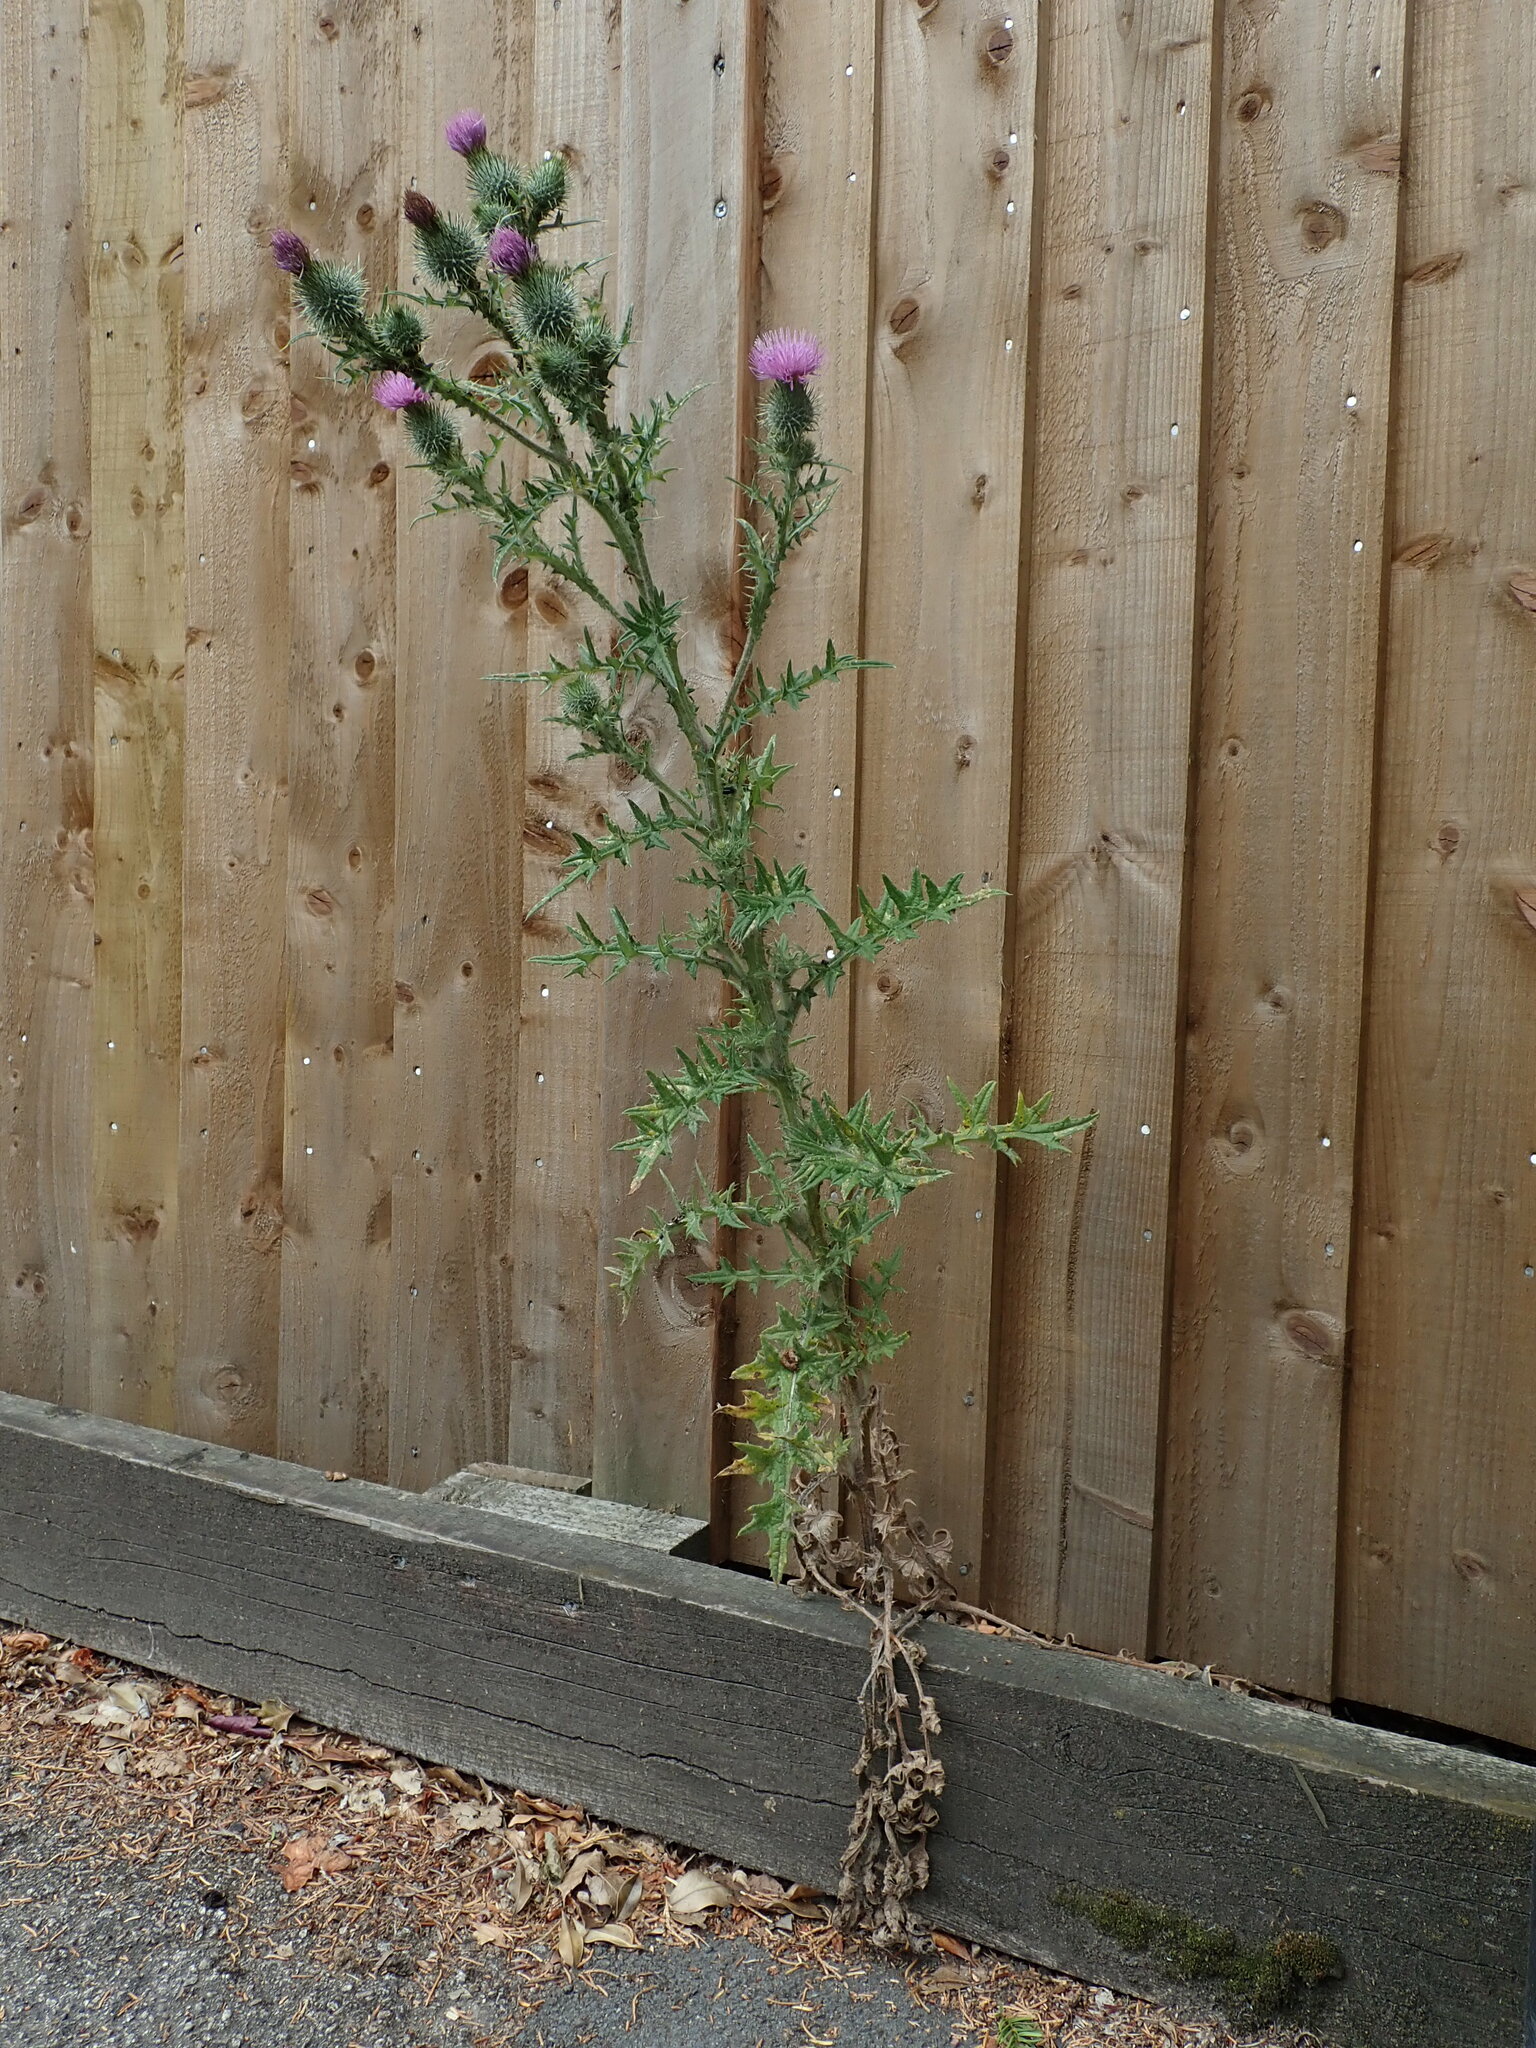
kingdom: Plantae
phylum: Tracheophyta
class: Magnoliopsida
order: Asterales
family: Asteraceae
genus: Cirsium
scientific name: Cirsium vulgare
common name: Bull thistle
